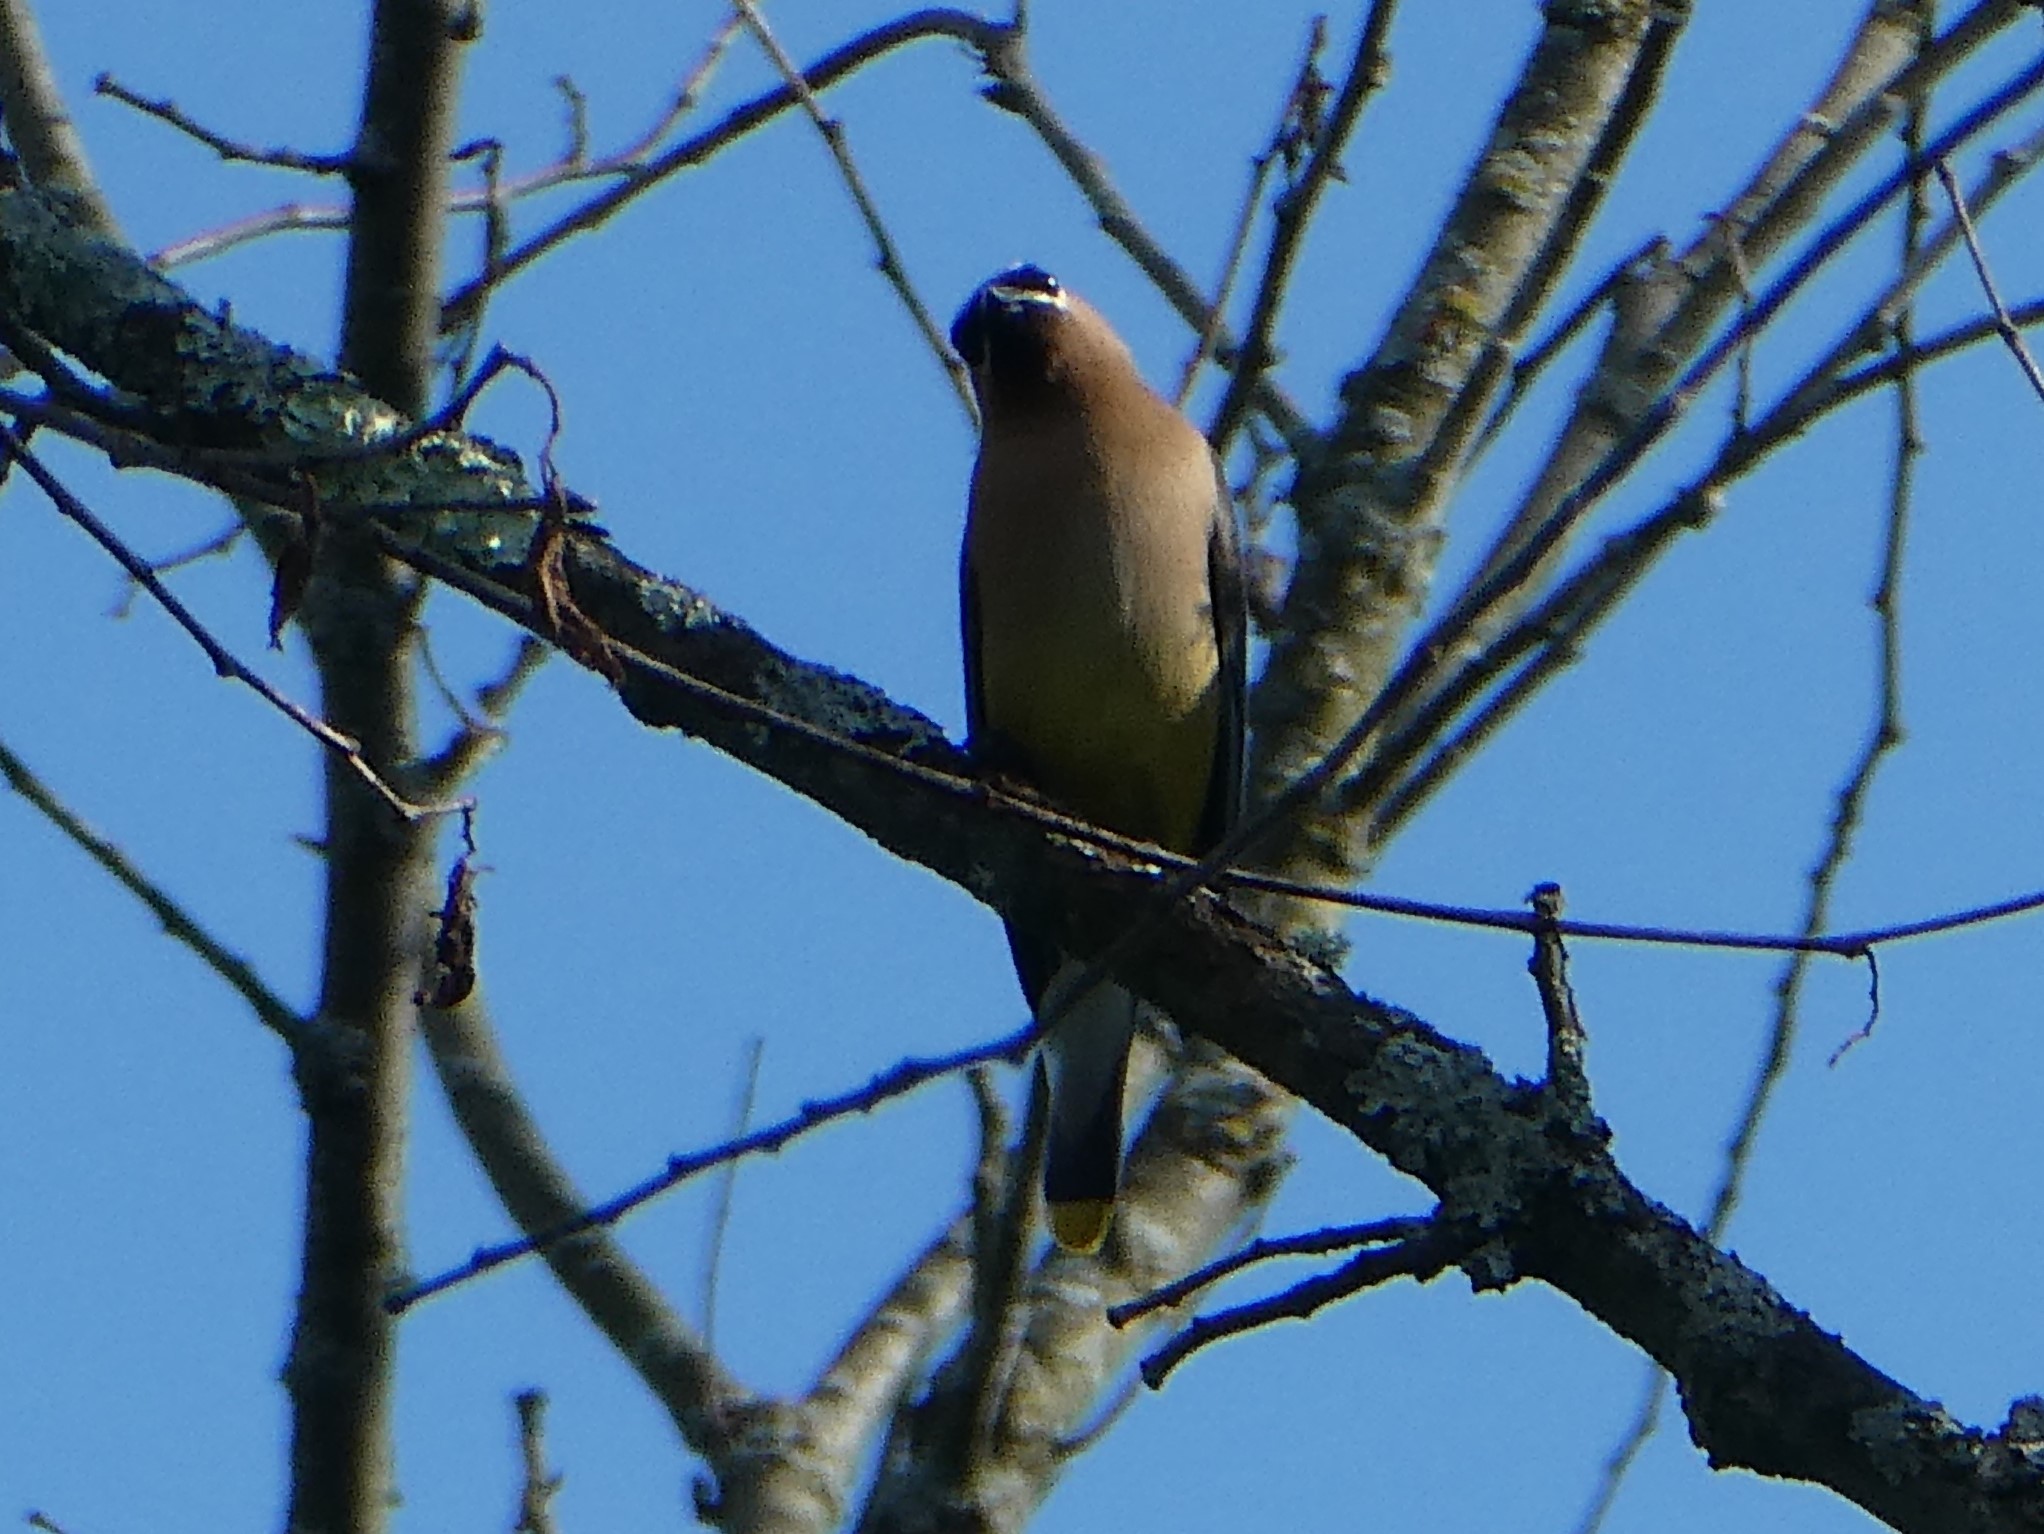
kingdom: Animalia
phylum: Chordata
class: Aves
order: Passeriformes
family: Bombycillidae
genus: Bombycilla
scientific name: Bombycilla cedrorum
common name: Cedar waxwing
